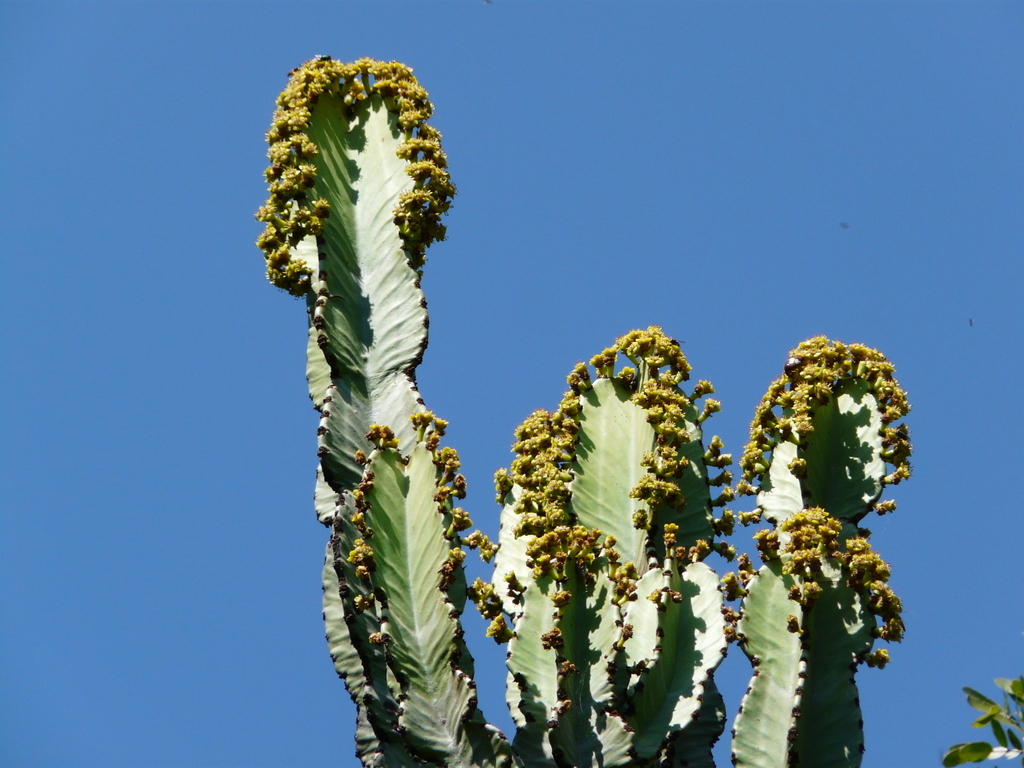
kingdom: Plantae
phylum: Tracheophyta
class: Magnoliopsida
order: Malpighiales
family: Euphorbiaceae
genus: Euphorbia
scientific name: Euphorbia ingens
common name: Cactus spurge
